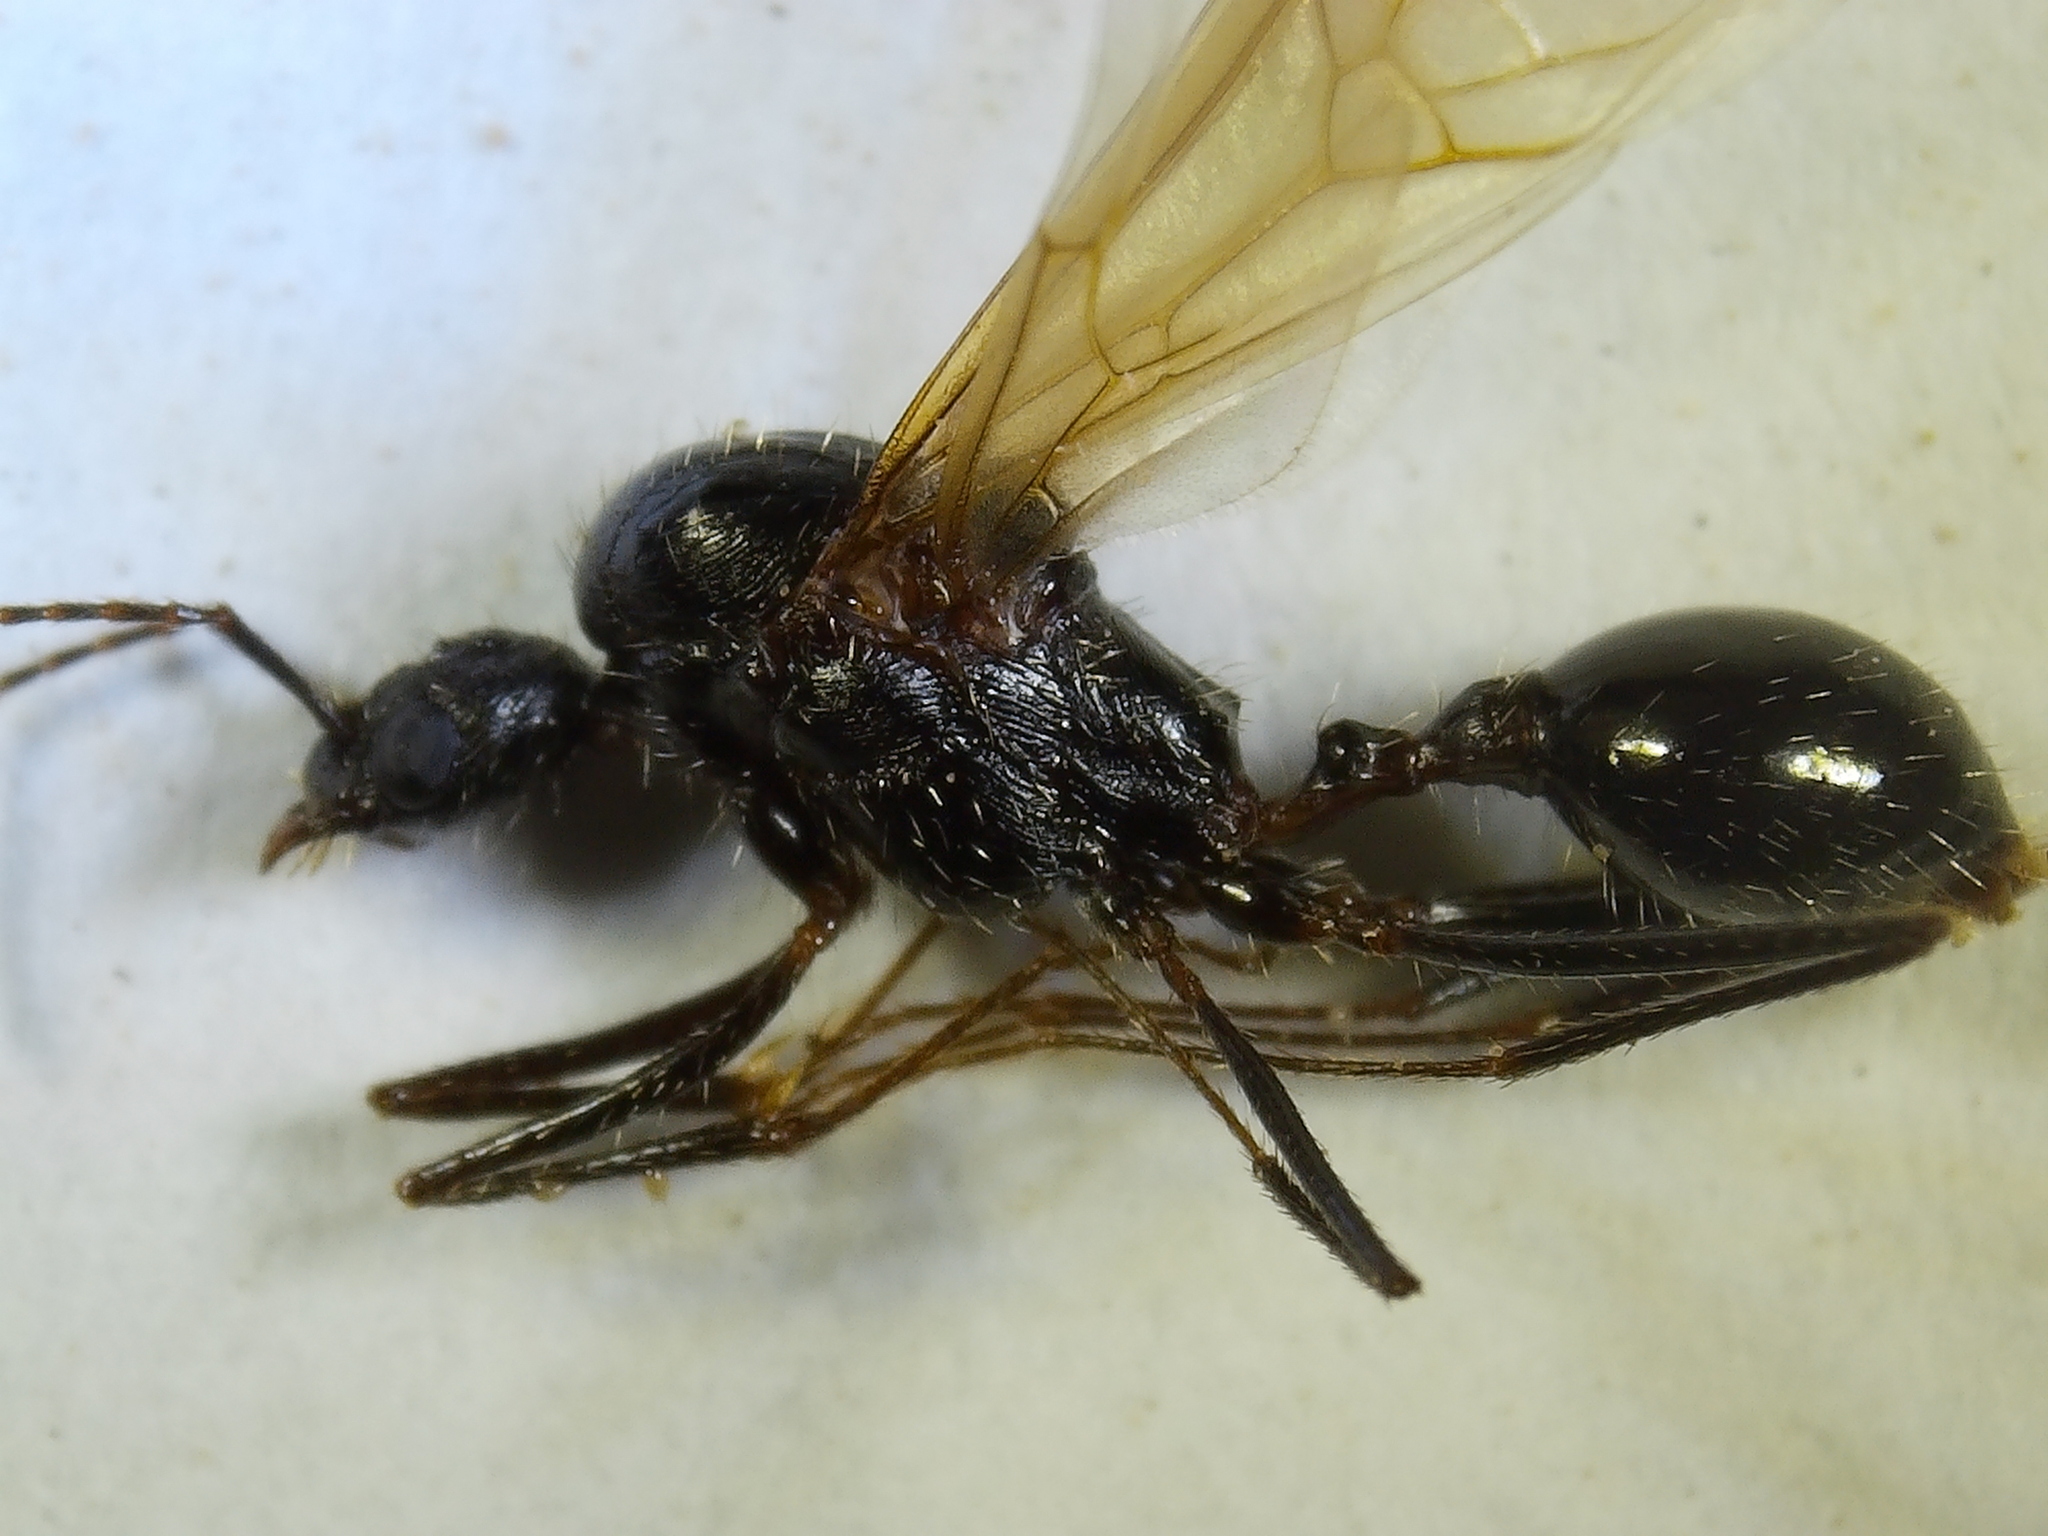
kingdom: Animalia
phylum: Arthropoda
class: Insecta
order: Hymenoptera
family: Formicidae
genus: Novomessor
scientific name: Novomessor cockerelli
